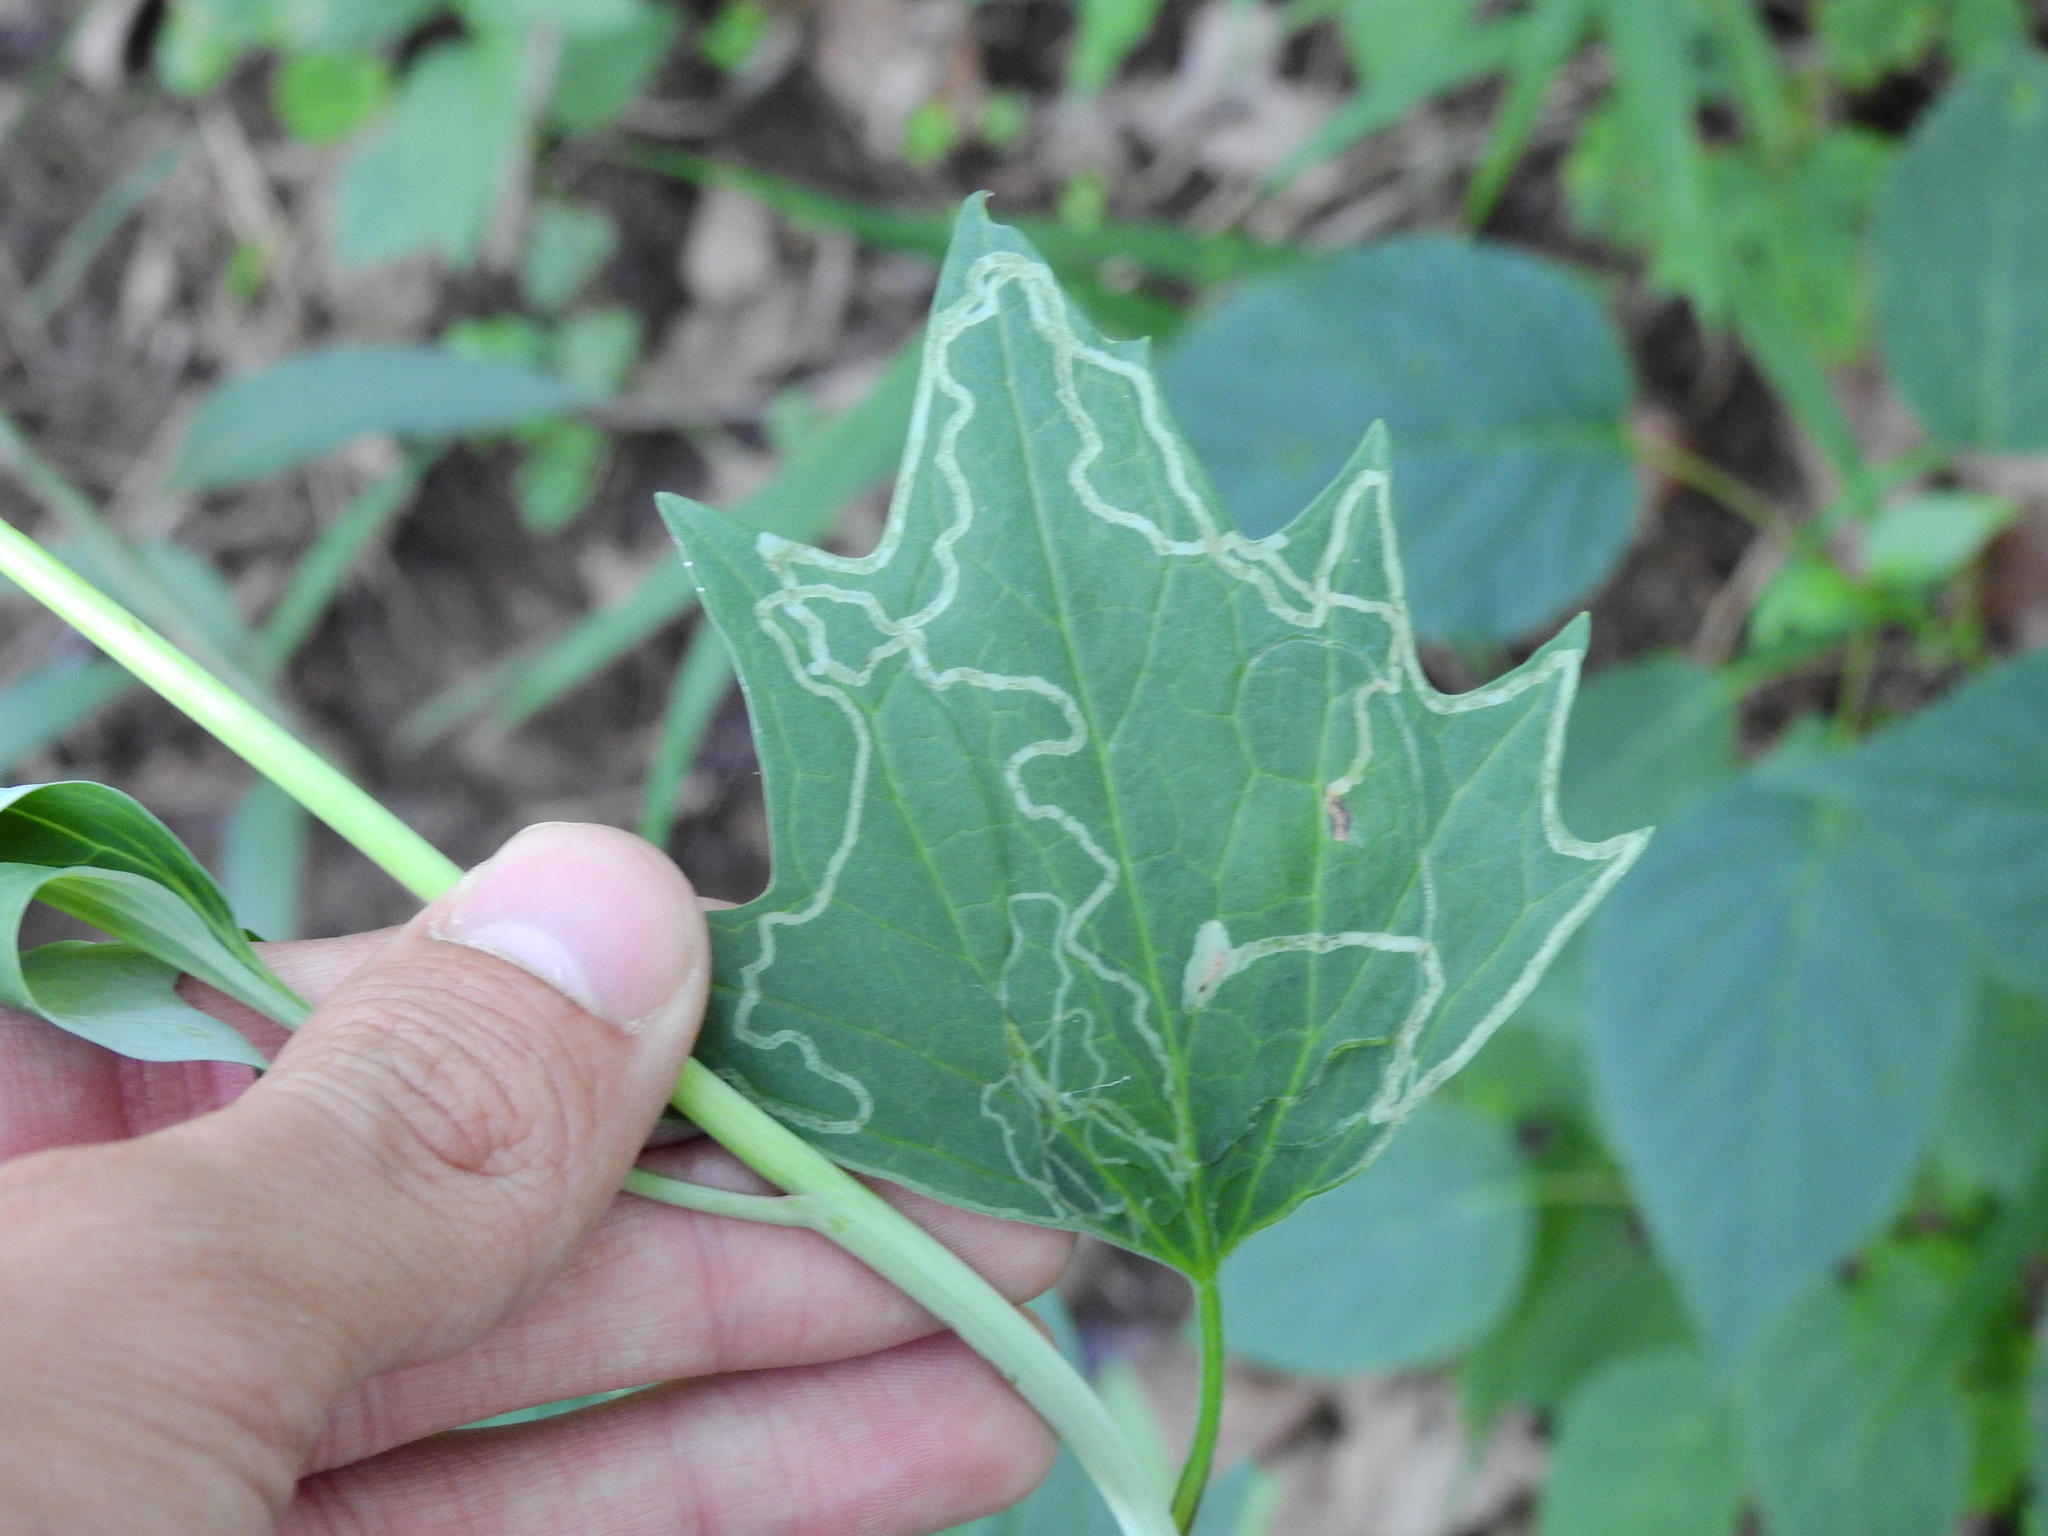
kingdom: Plantae
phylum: Tracheophyta
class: Magnoliopsida
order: Asterales
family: Asteraceae
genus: Arnoglossum
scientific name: Arnoglossum atriplicifolium
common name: Pale indian-plantain
